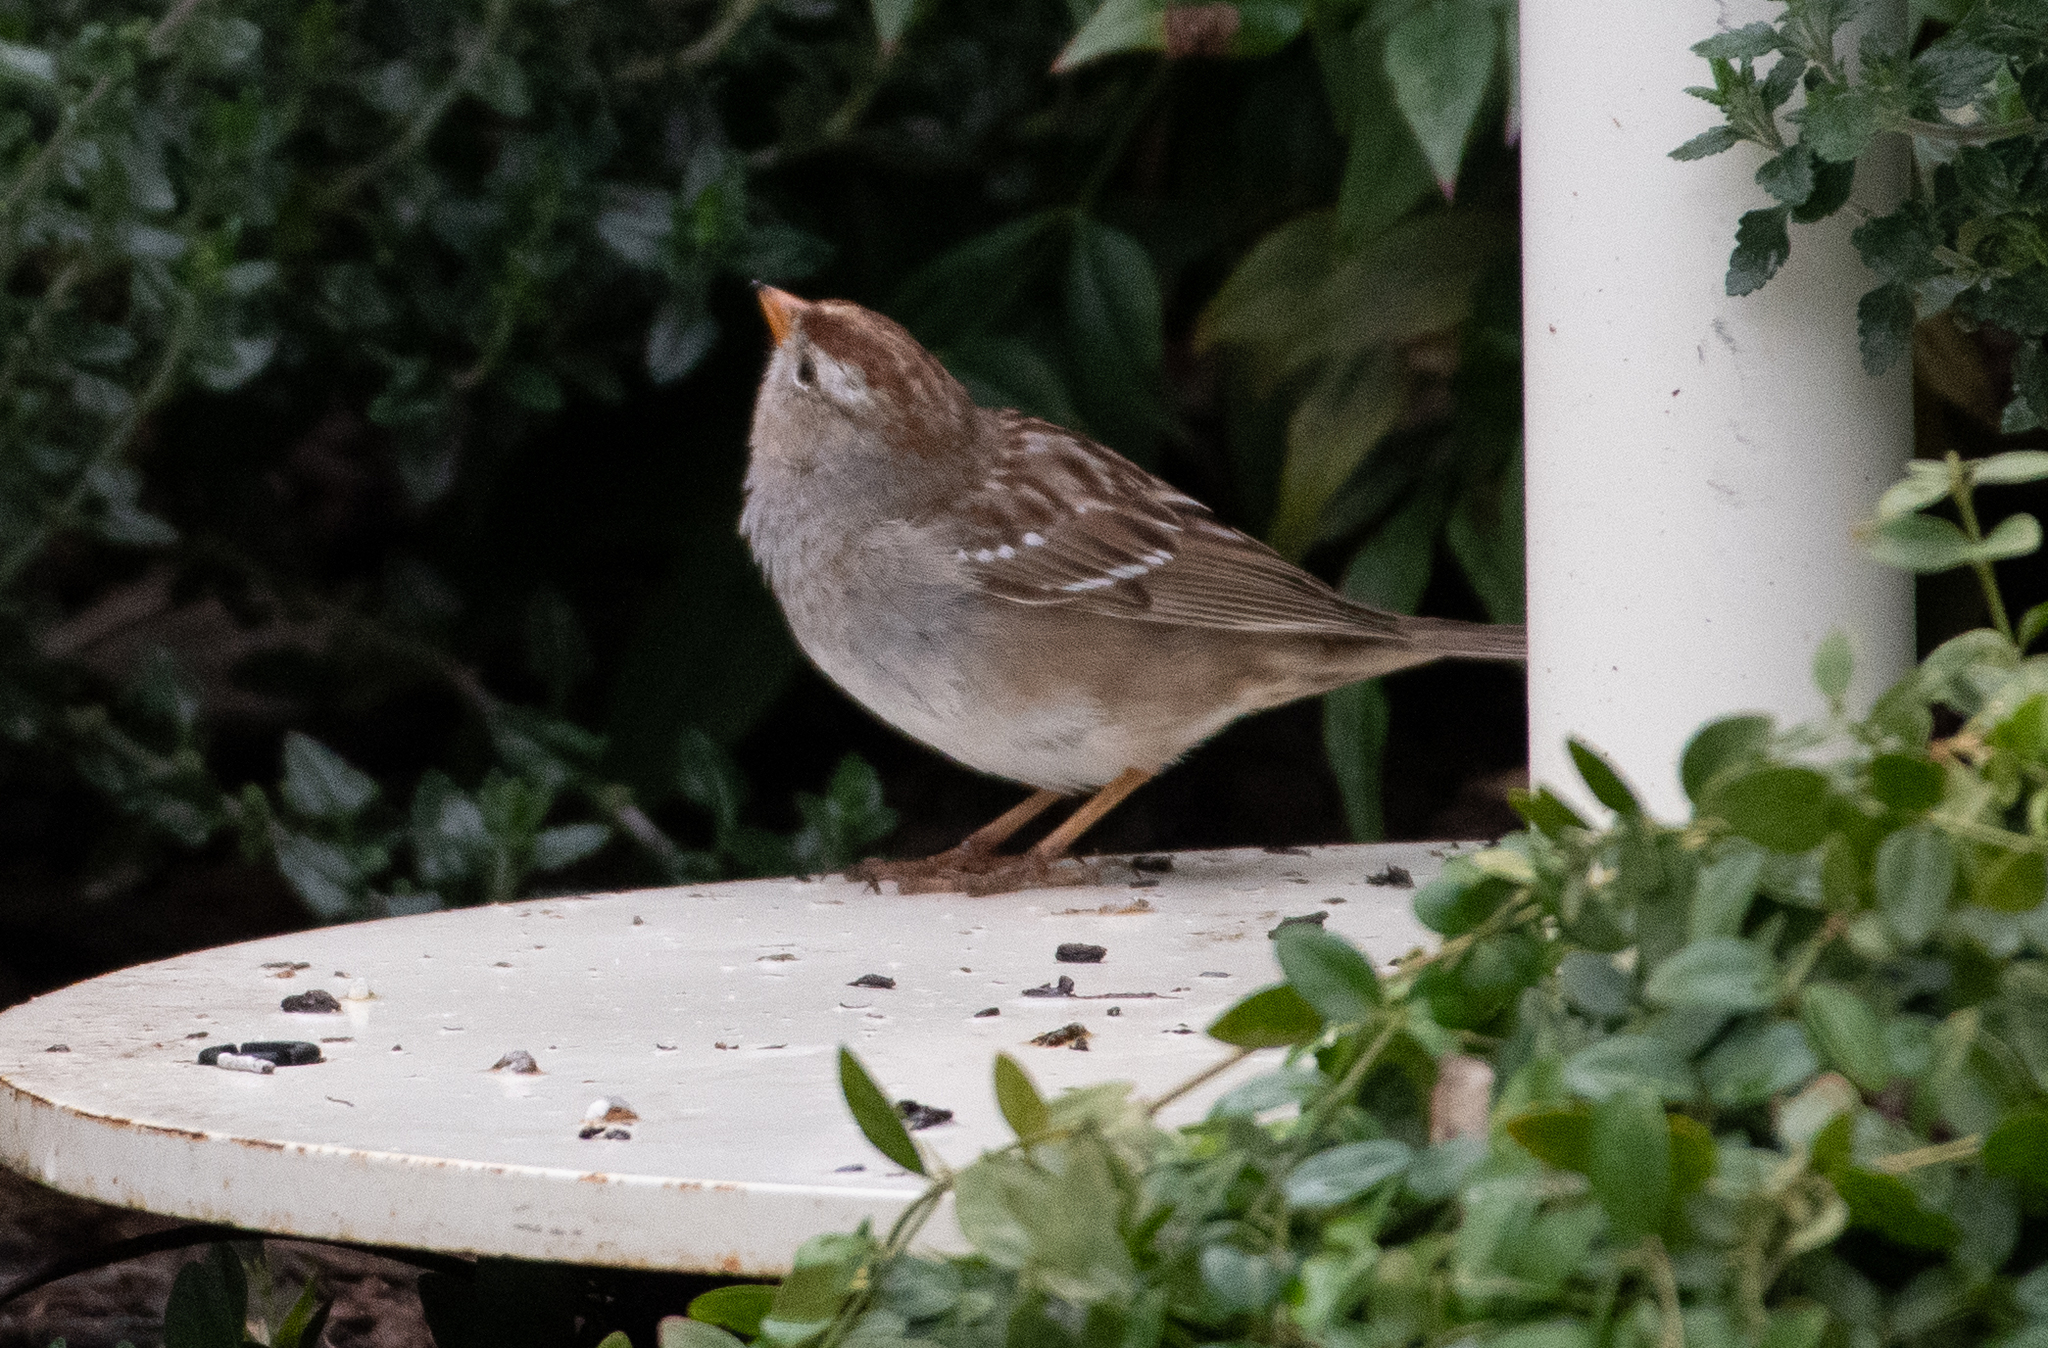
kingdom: Animalia
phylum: Chordata
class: Aves
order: Passeriformes
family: Passerellidae
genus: Zonotrichia
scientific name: Zonotrichia leucophrys
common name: White-crowned sparrow
